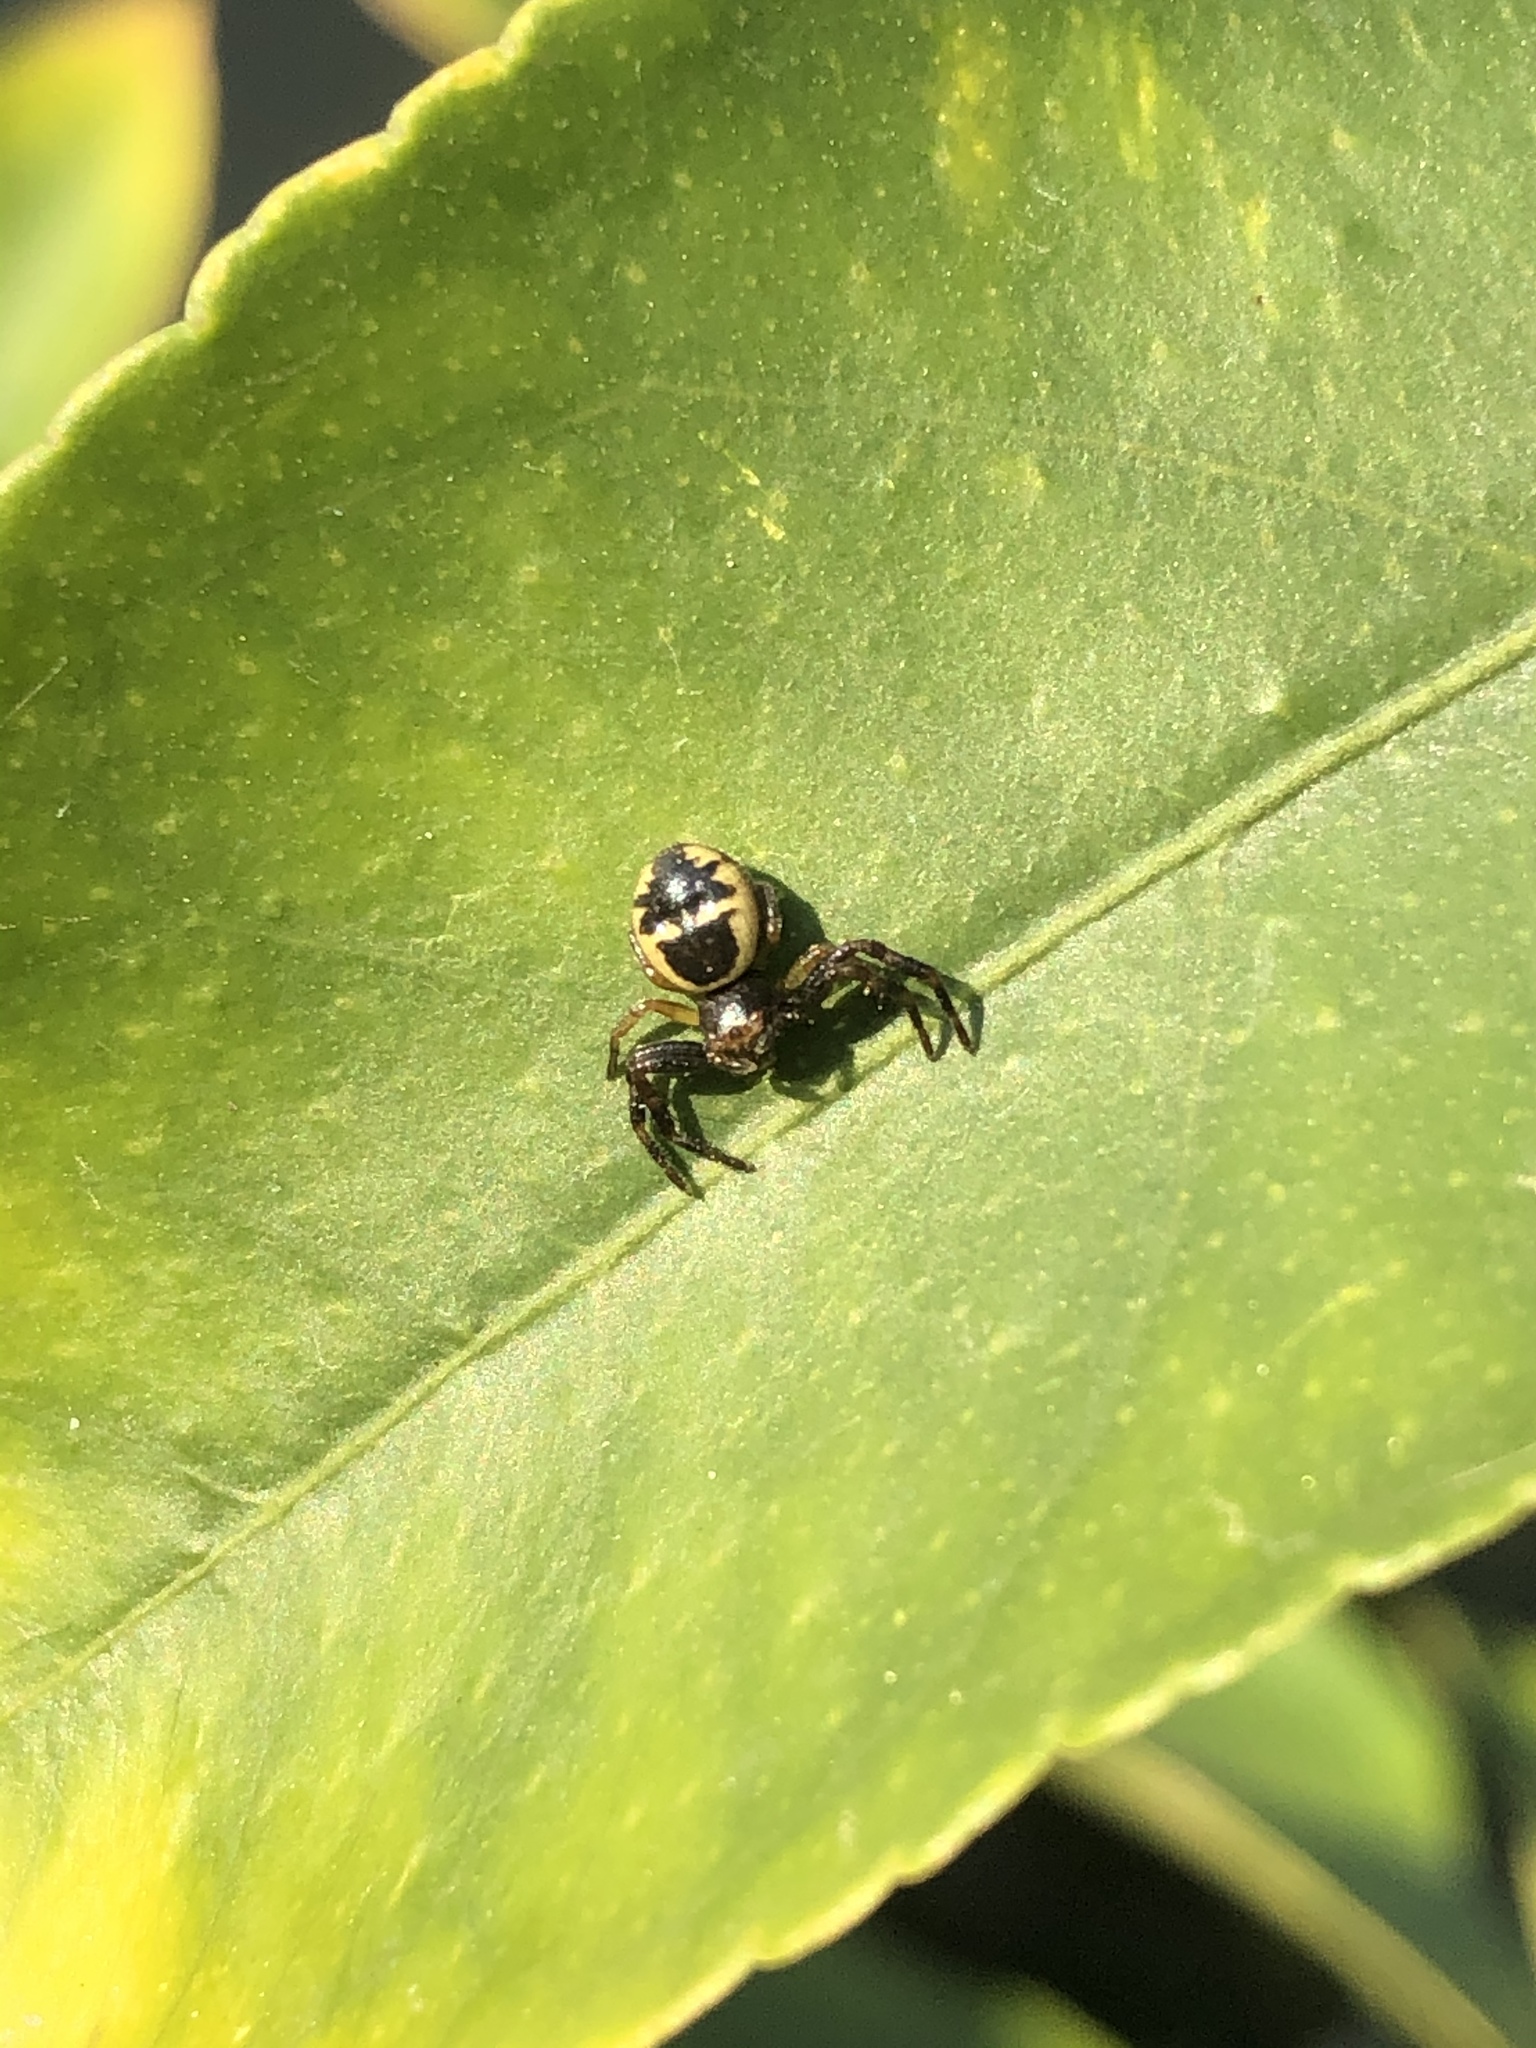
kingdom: Animalia
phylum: Arthropoda
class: Arachnida
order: Araneae
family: Thomisidae
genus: Synema
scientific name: Synema globosum
